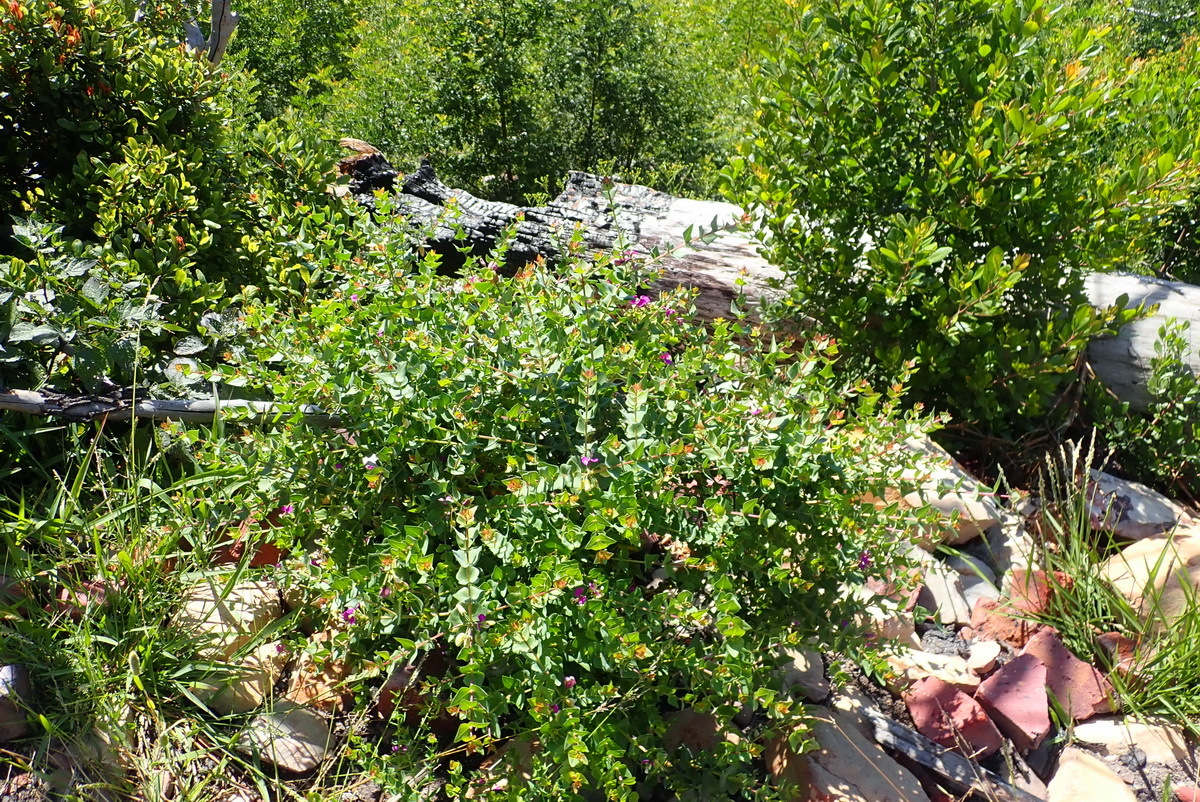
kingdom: Plantae
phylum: Tracheophyta
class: Magnoliopsida
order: Fabales
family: Polygalaceae
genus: Polygala
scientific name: Polygala fruticosa
